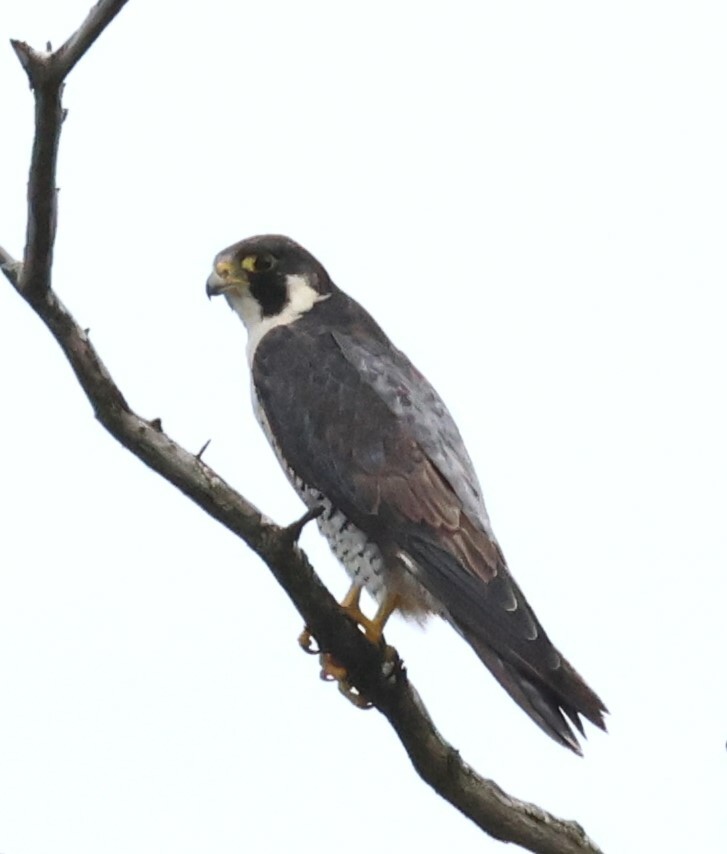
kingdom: Animalia
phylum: Chordata
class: Aves
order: Falconiformes
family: Falconidae
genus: Falco
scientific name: Falco peregrinus
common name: Peregrine falcon
